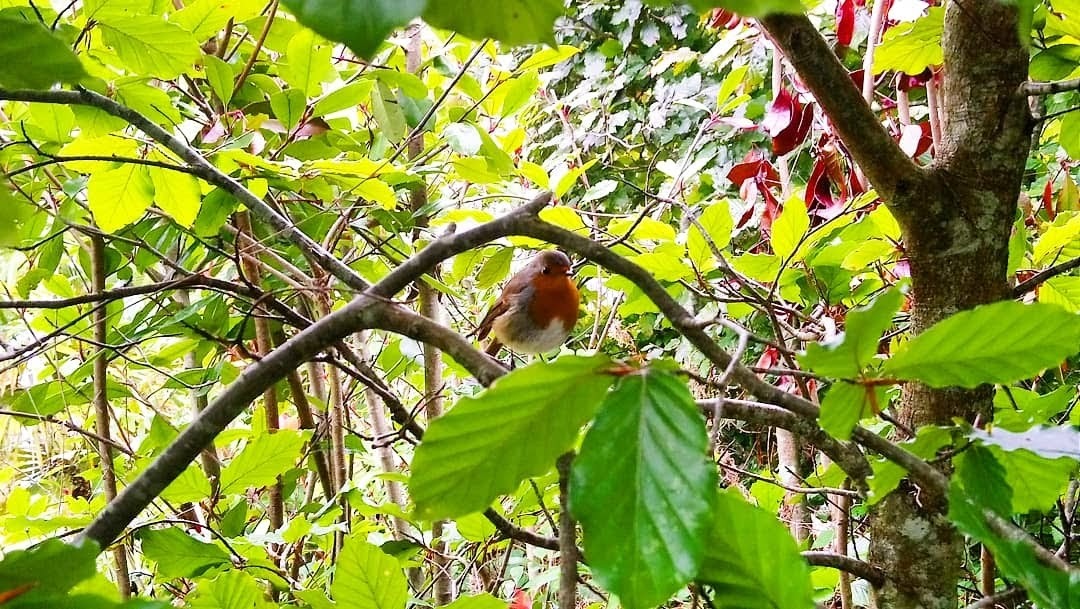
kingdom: Animalia
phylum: Chordata
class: Aves
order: Passeriformes
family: Muscicapidae
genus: Erithacus
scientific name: Erithacus rubecula
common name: European robin
